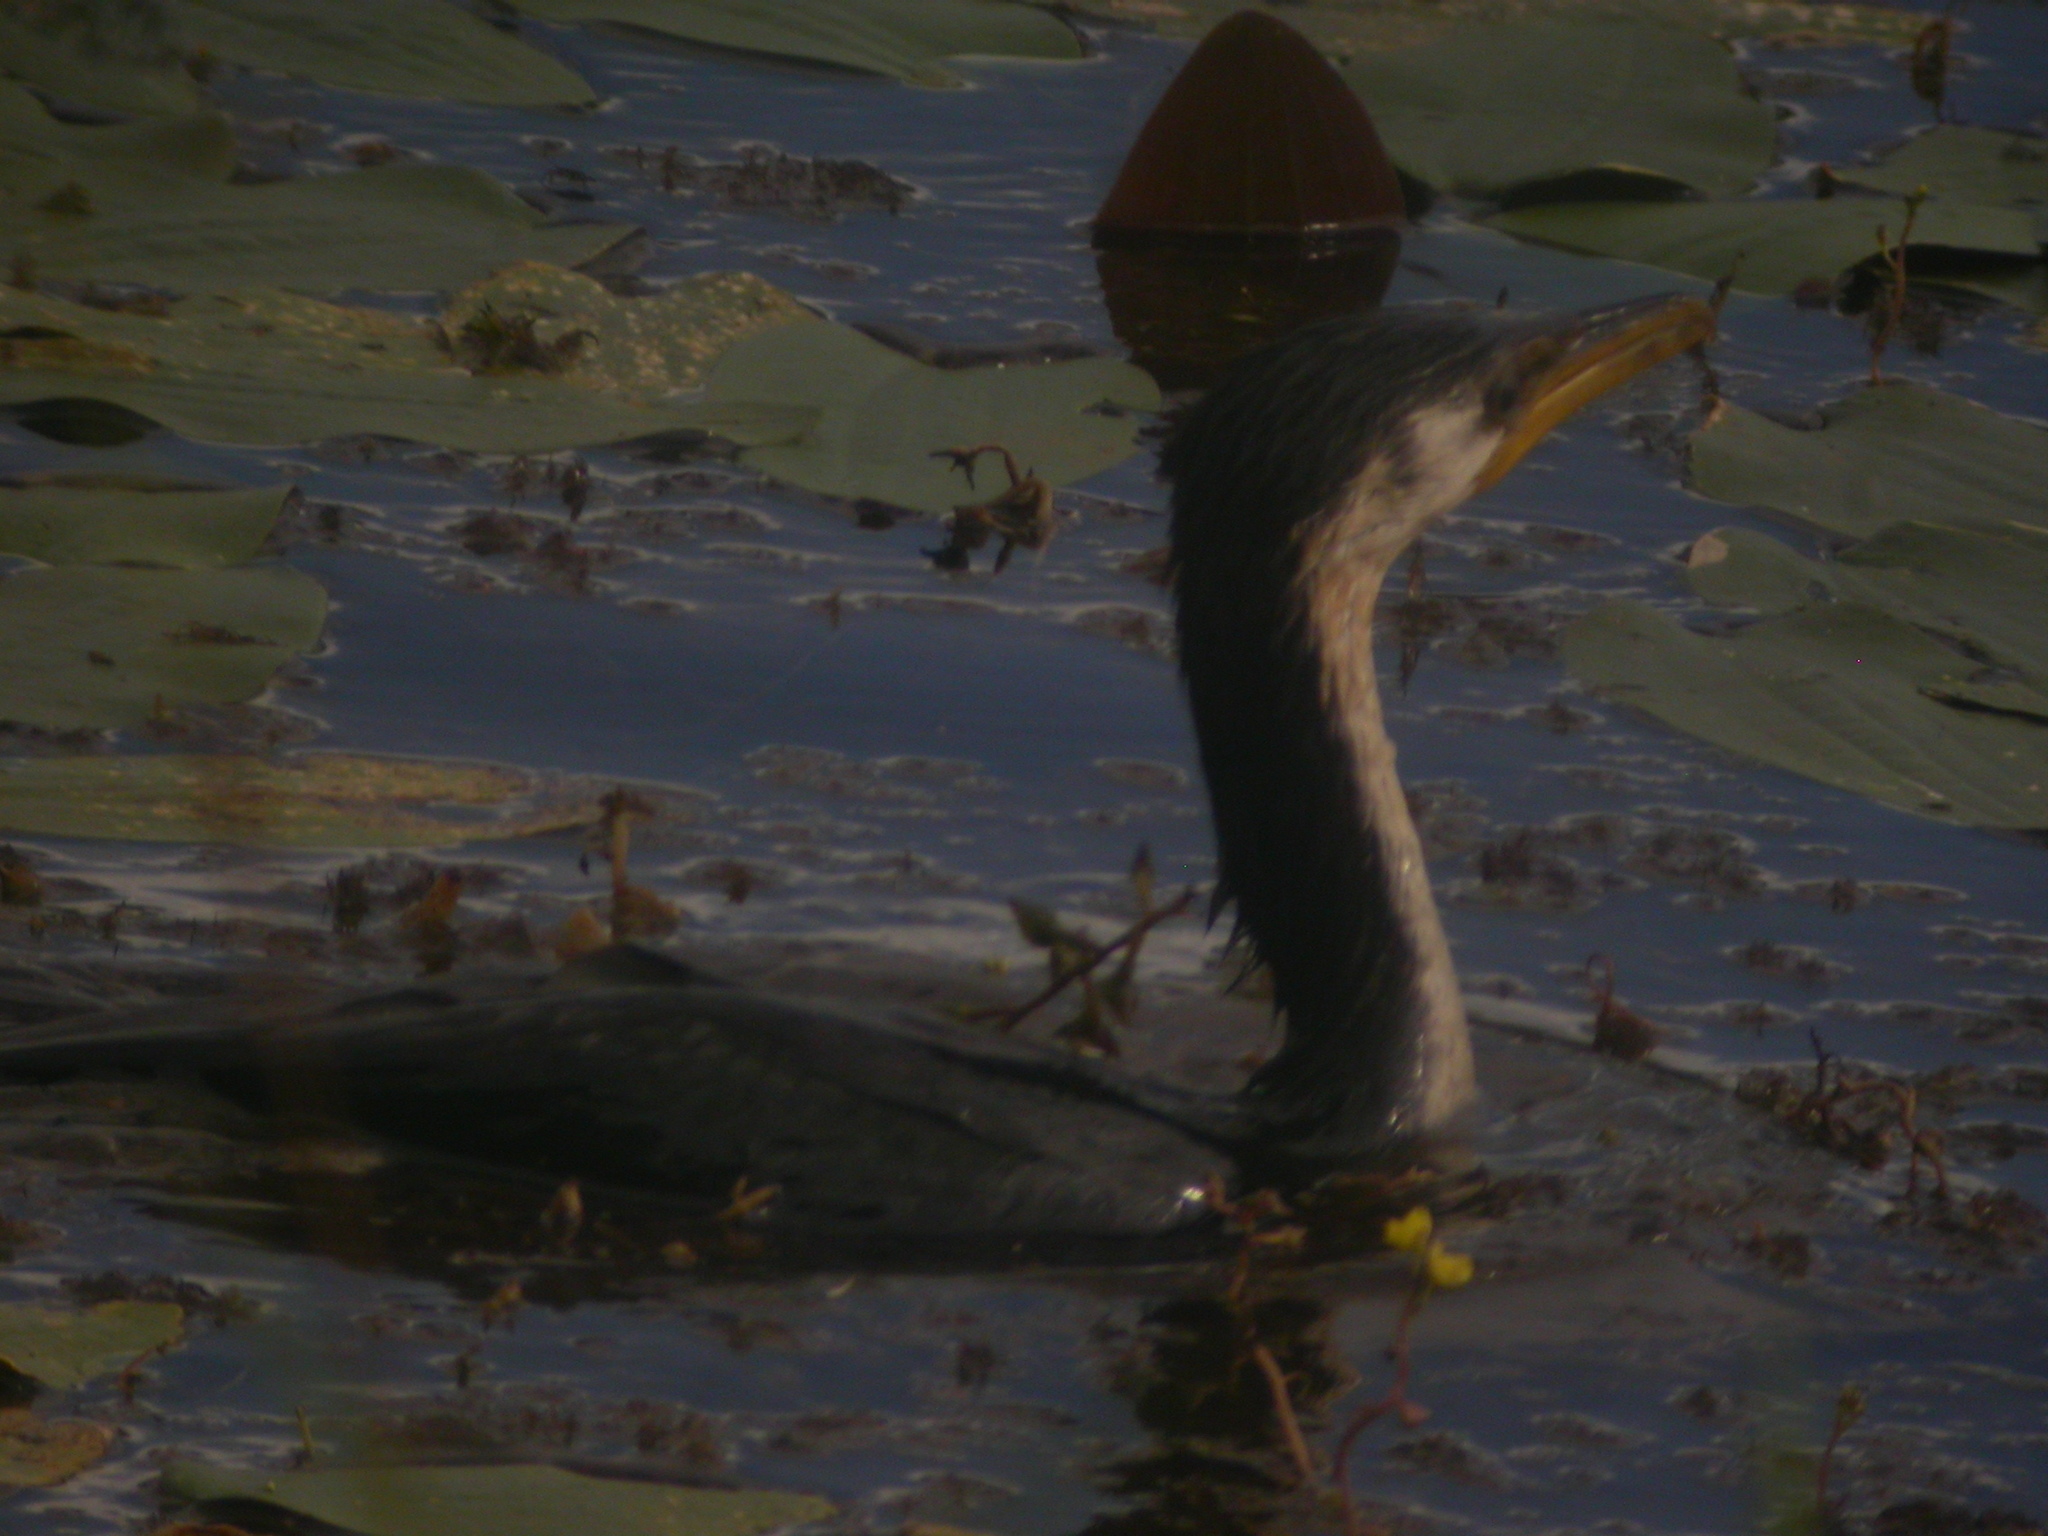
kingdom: Animalia
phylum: Chordata
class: Aves
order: Suliformes
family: Phalacrocoracidae
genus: Microcarbo
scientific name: Microcarbo melanoleucos
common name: Little pied cormorant
